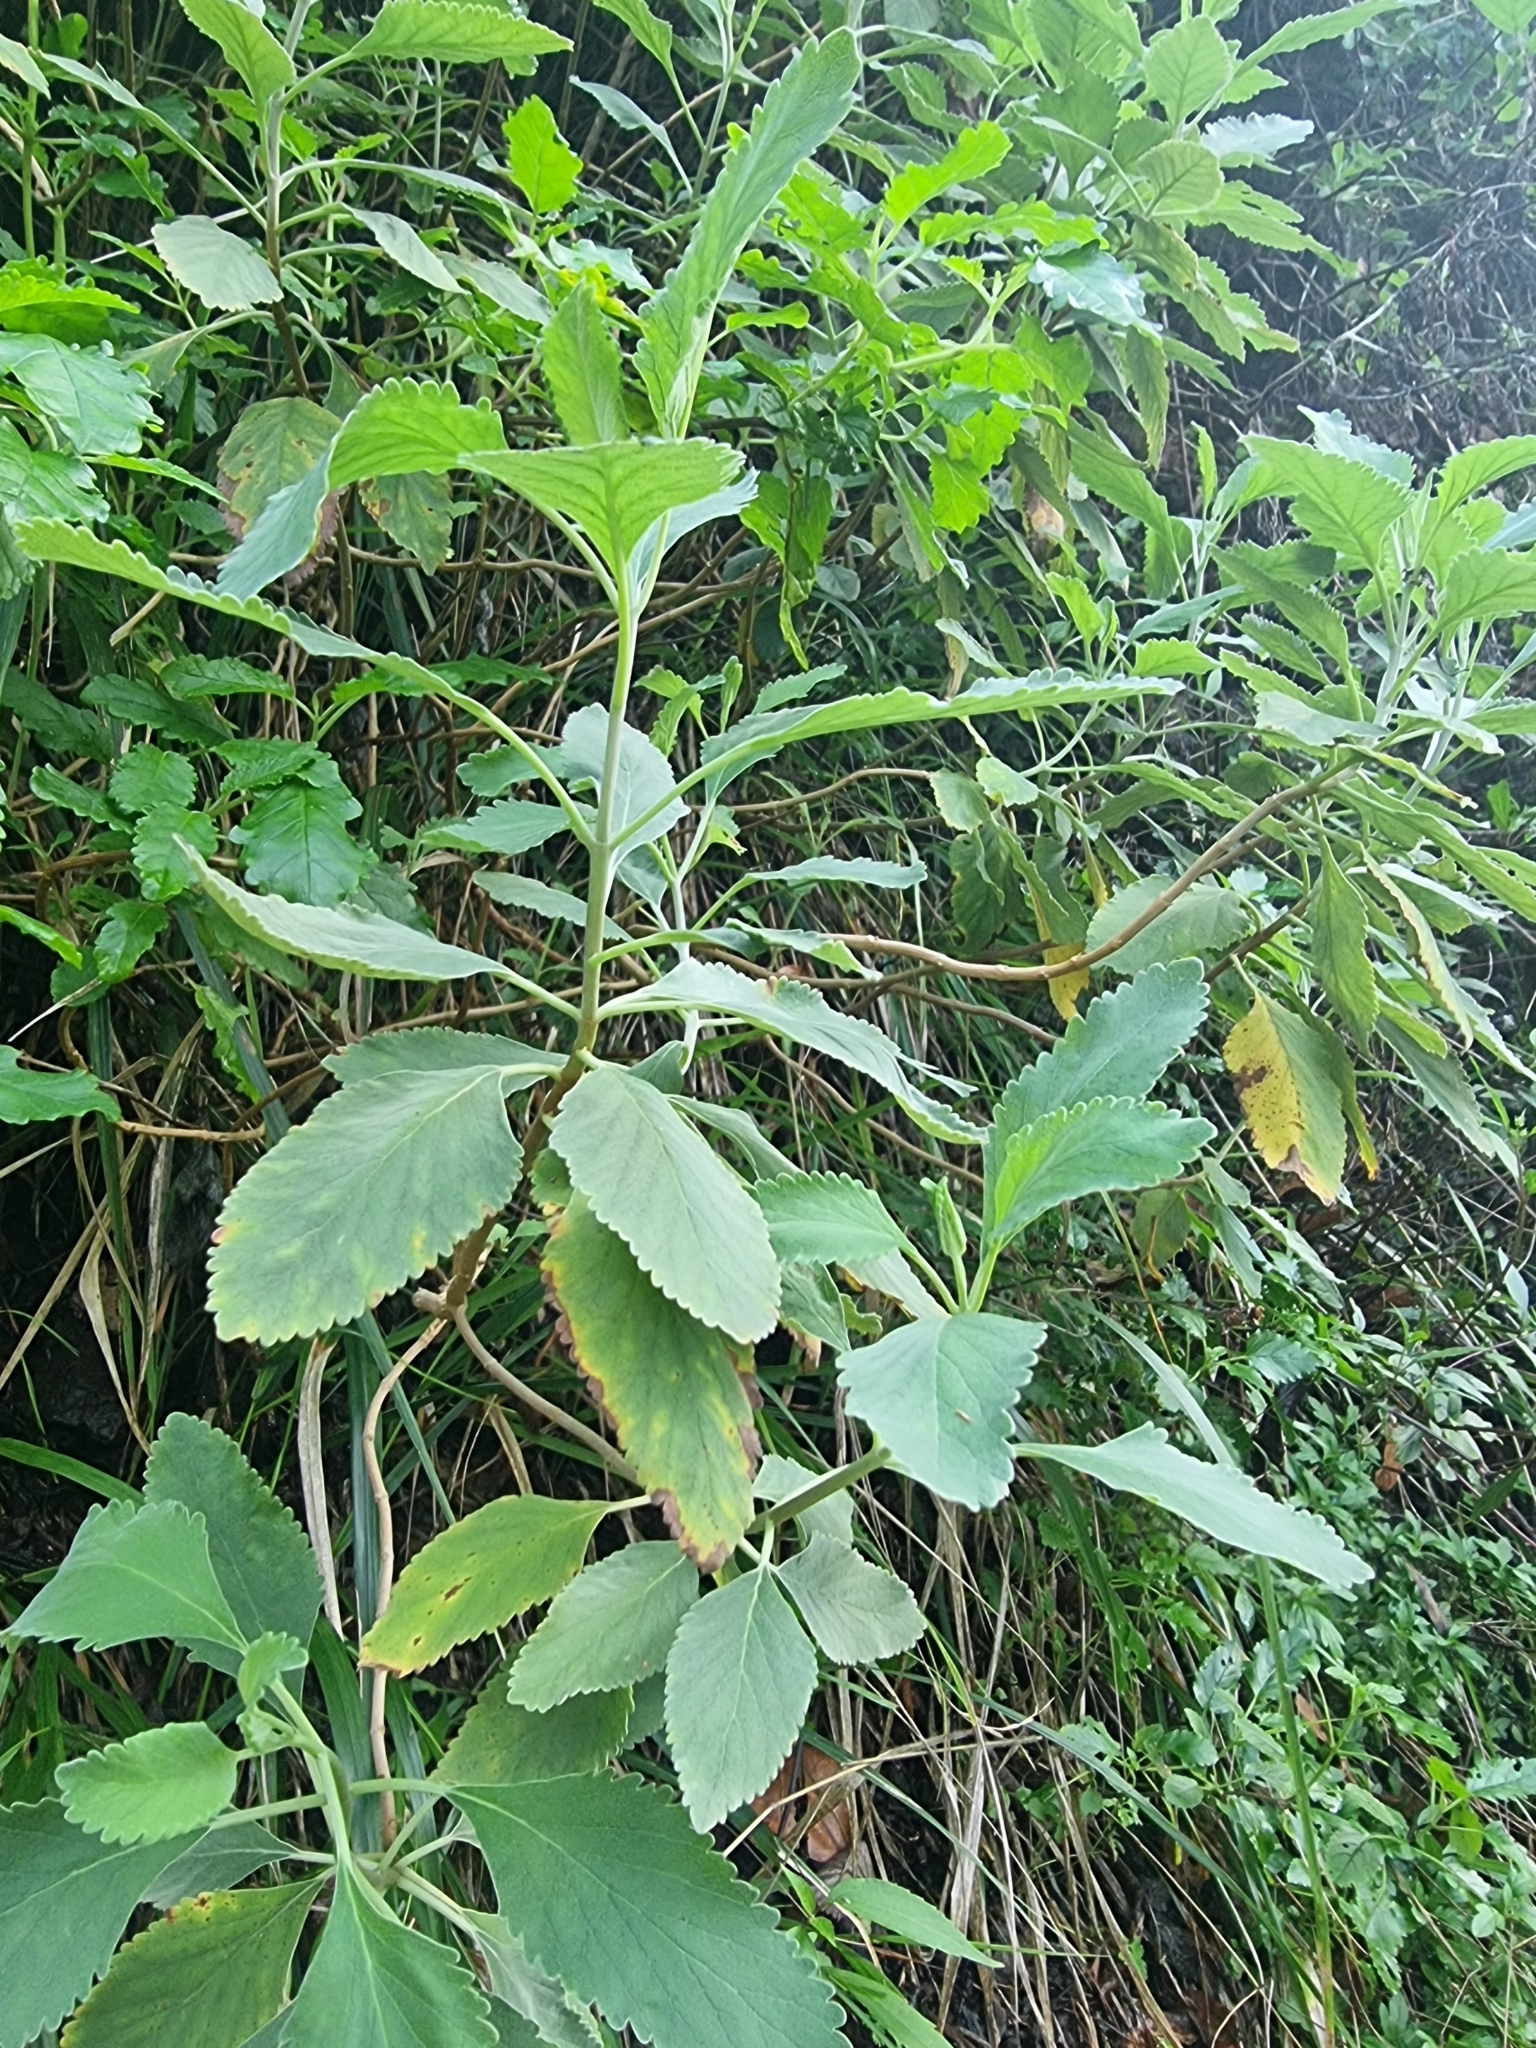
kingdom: Plantae
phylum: Tracheophyta
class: Magnoliopsida
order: Lamiales
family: Lamiaceae
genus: Teucrium
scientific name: Teucrium betonicum
